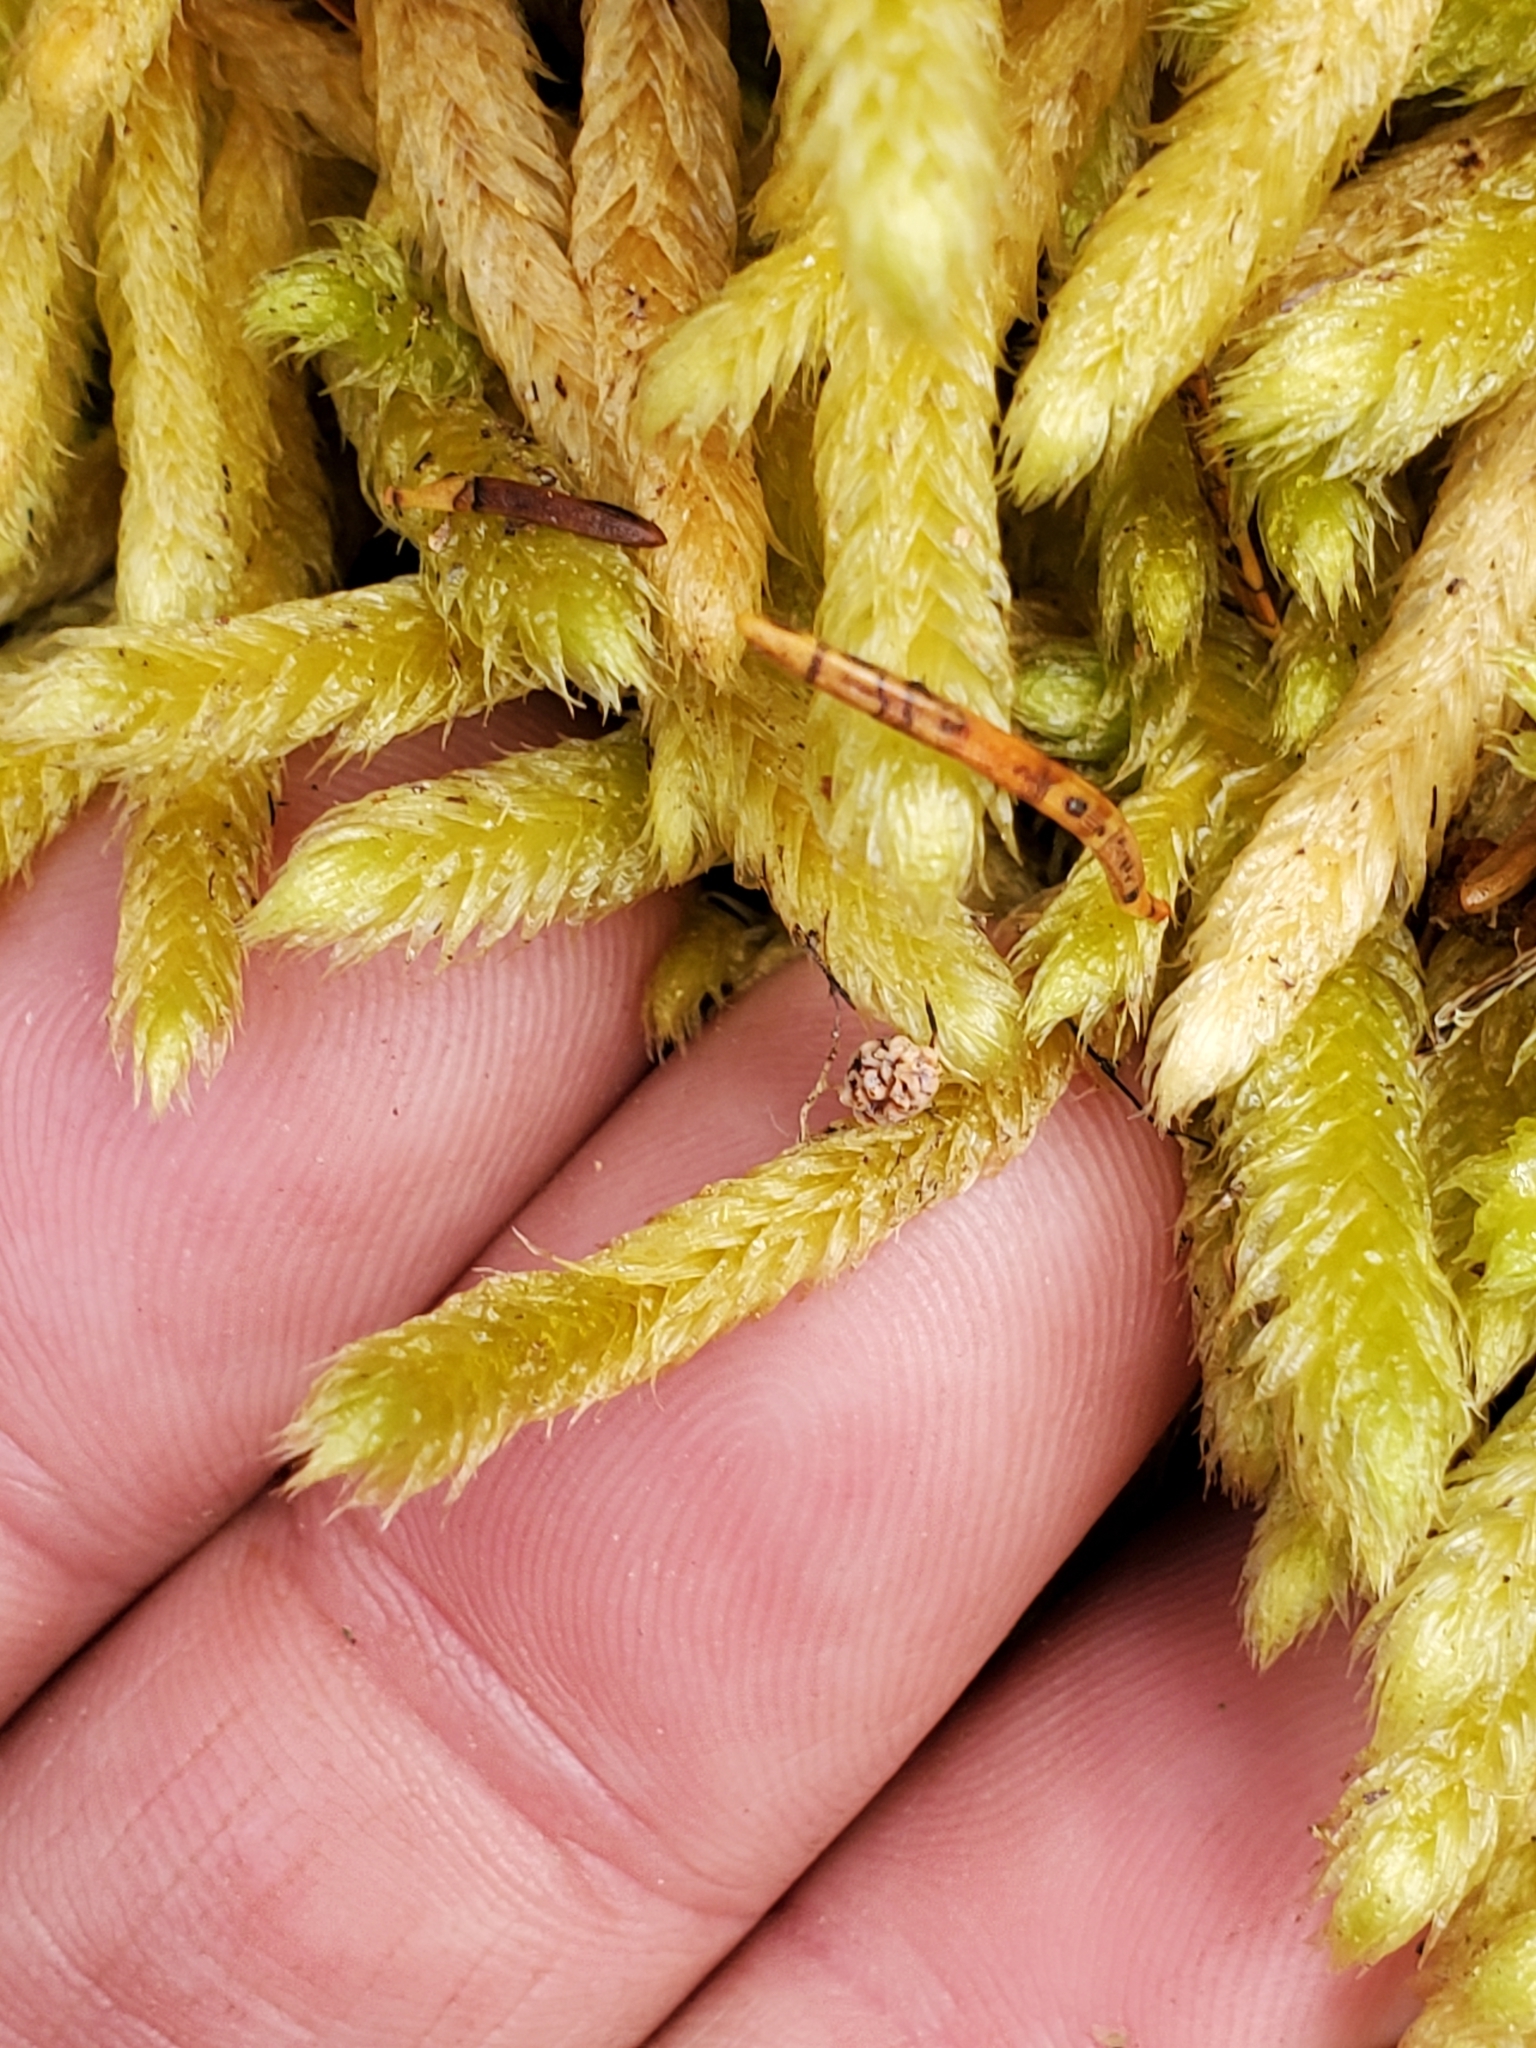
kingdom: Plantae
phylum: Bryophyta
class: Bryopsida
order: Hypnales
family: Hylocomiaceae
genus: Rhytidiopsis
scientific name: Rhytidiopsis robusta
